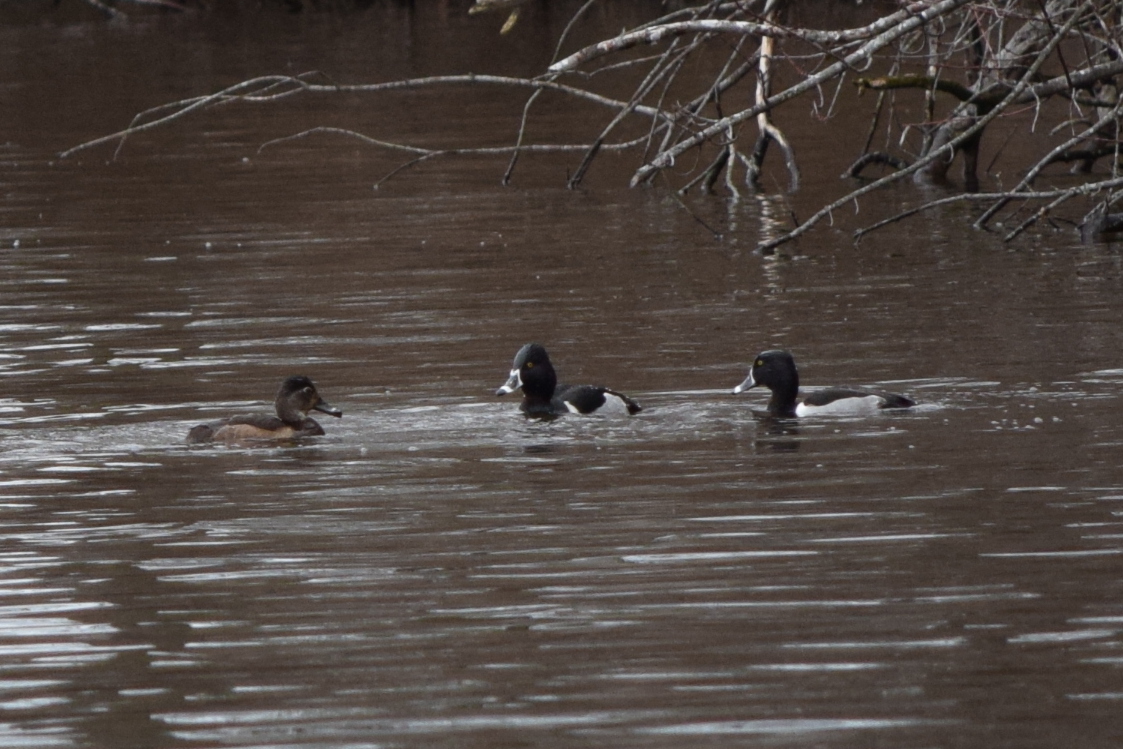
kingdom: Animalia
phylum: Chordata
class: Aves
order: Anseriformes
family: Anatidae
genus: Aythya
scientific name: Aythya collaris
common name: Ring-necked duck
